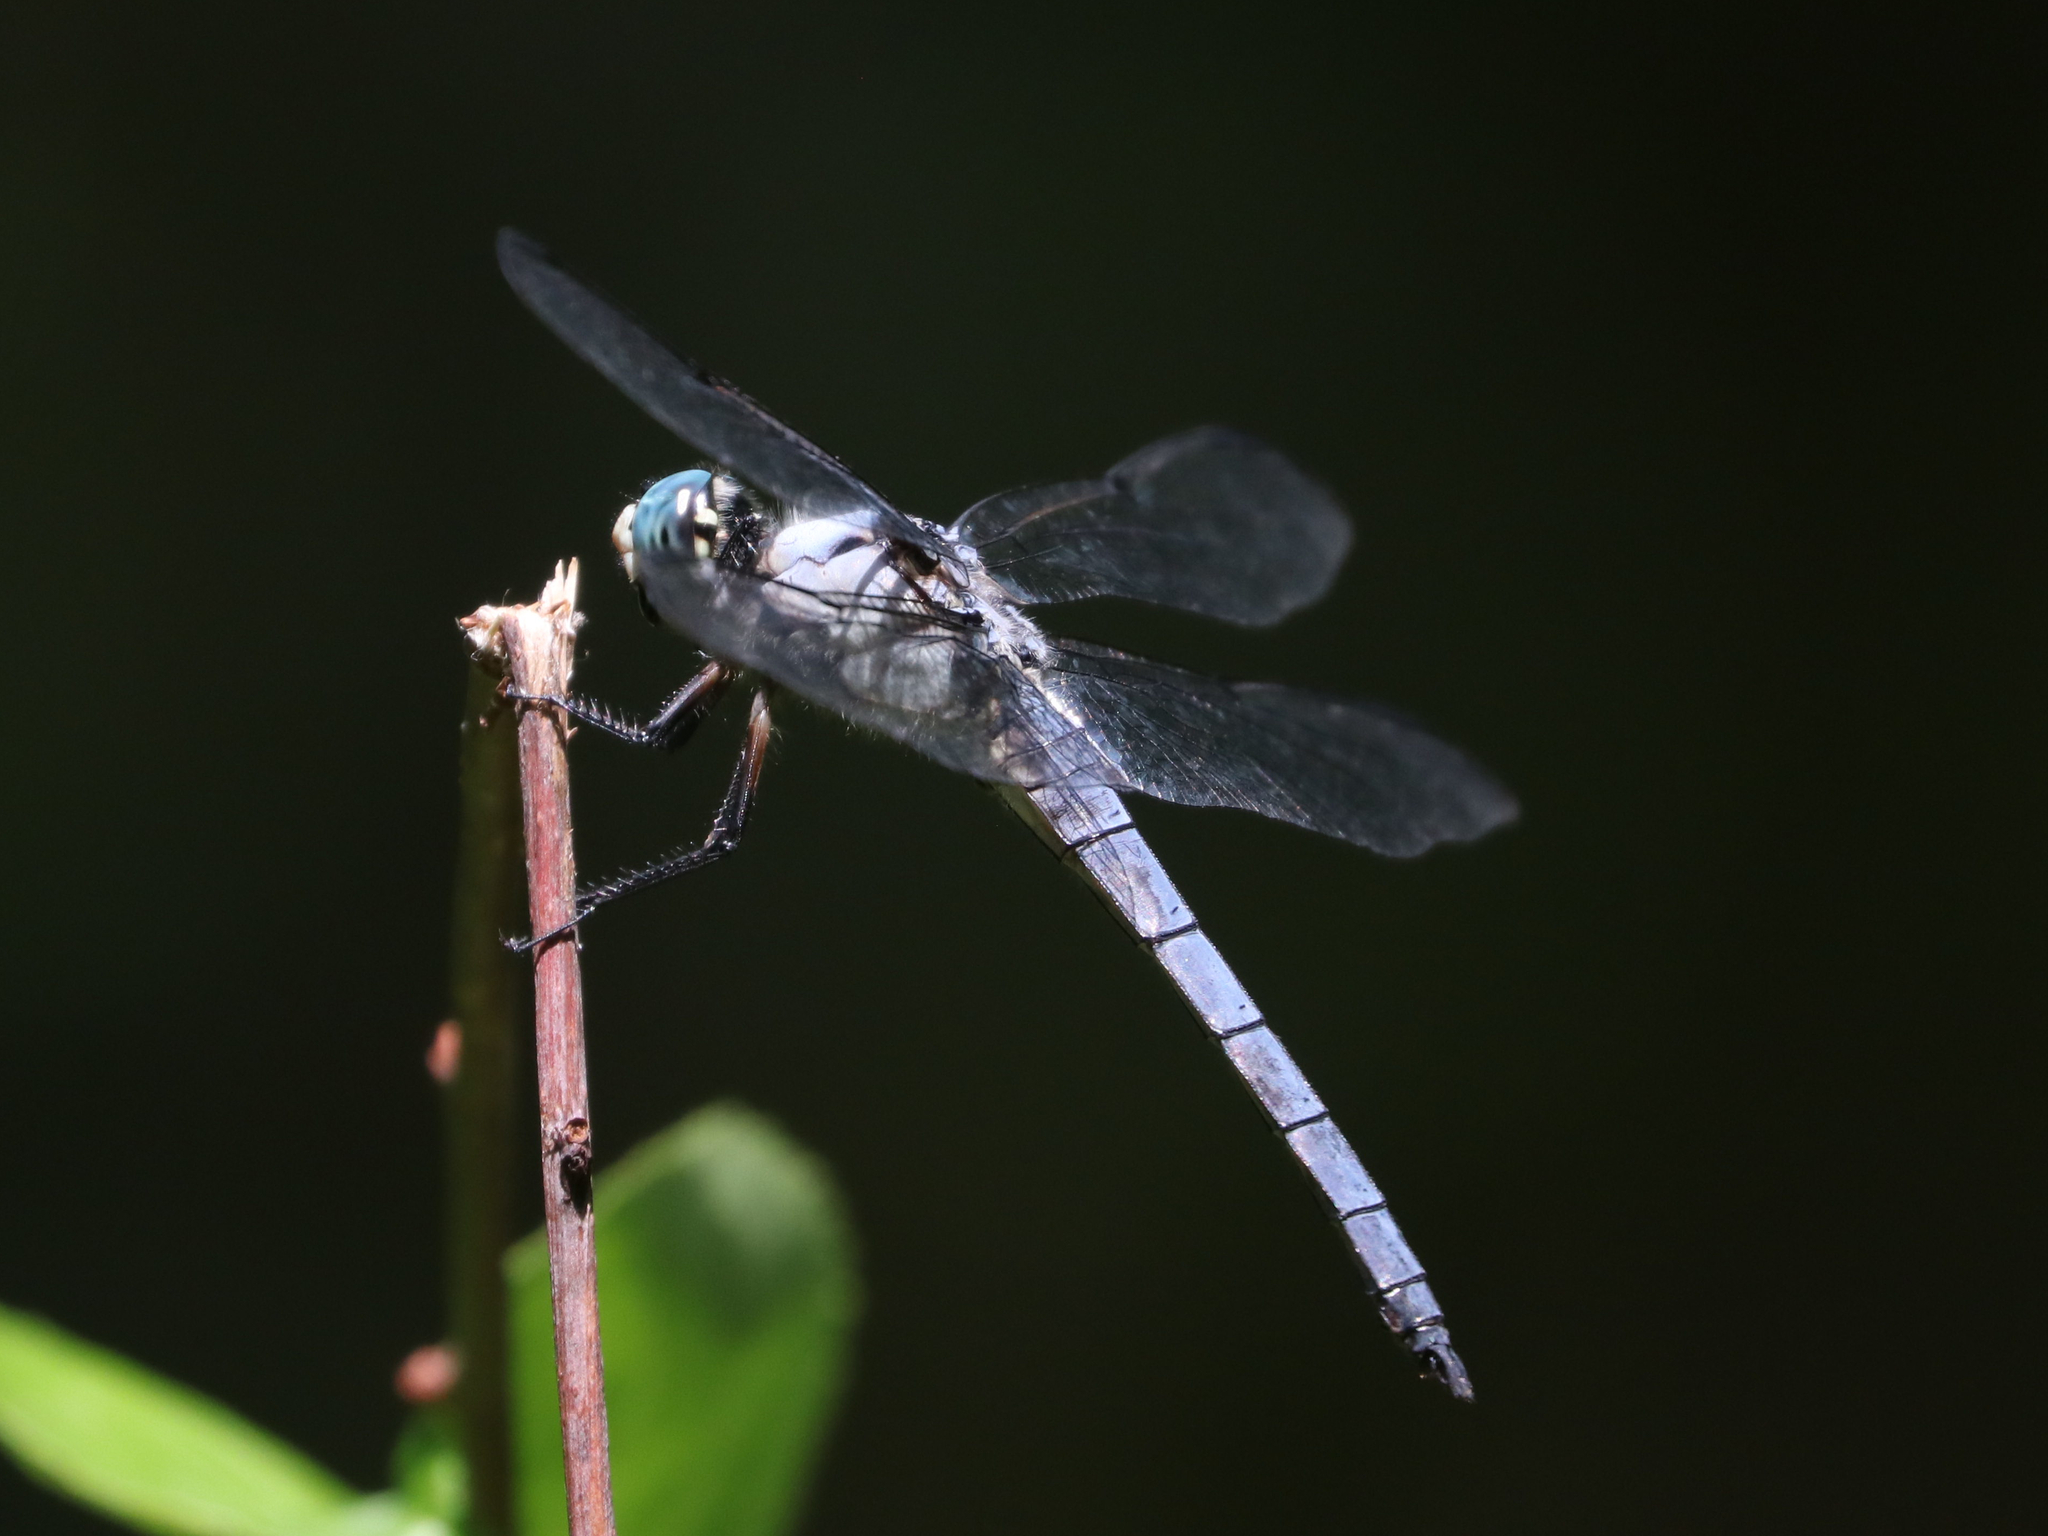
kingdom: Animalia
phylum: Arthropoda
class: Insecta
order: Odonata
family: Libellulidae
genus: Libellula
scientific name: Libellula vibrans
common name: Great blue skimmer
